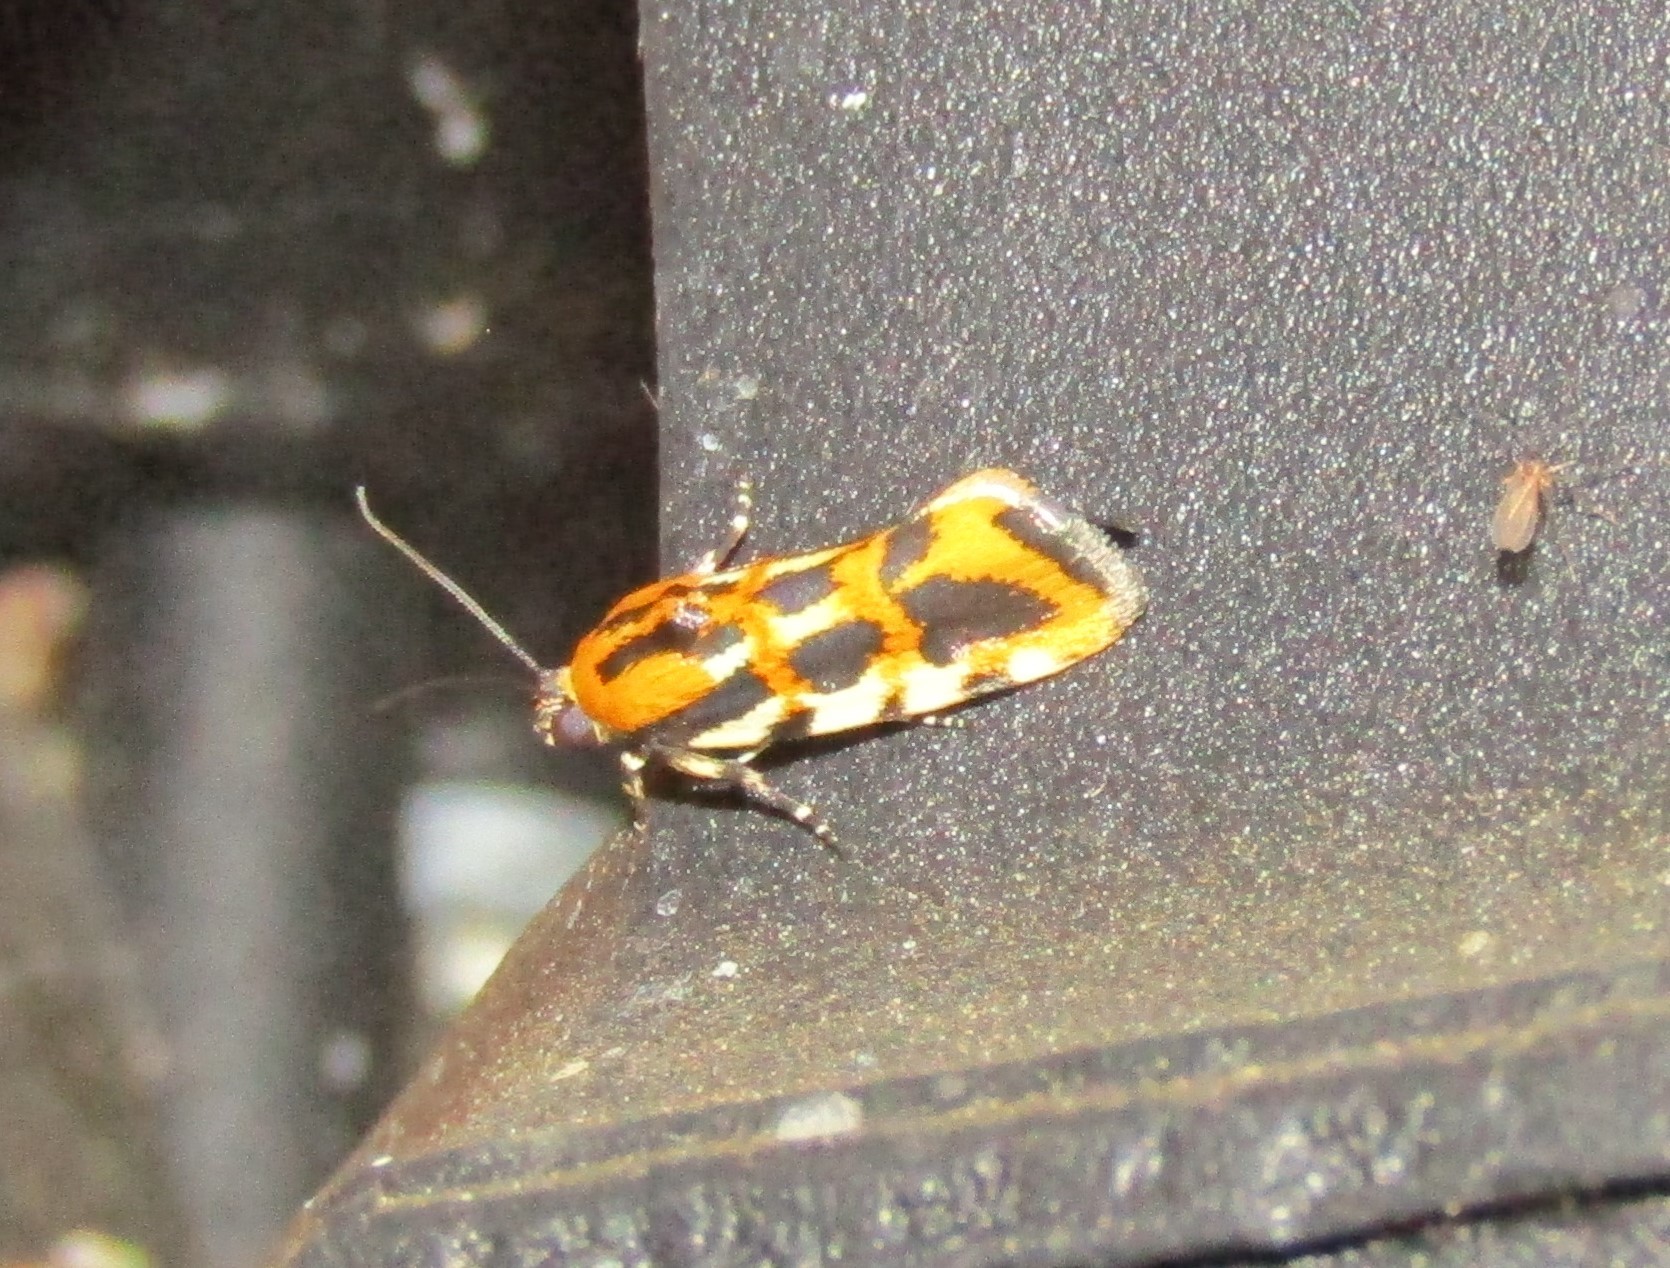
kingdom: Animalia
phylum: Arthropoda
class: Insecta
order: Lepidoptera
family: Noctuidae
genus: Acontia
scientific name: Acontia leo
